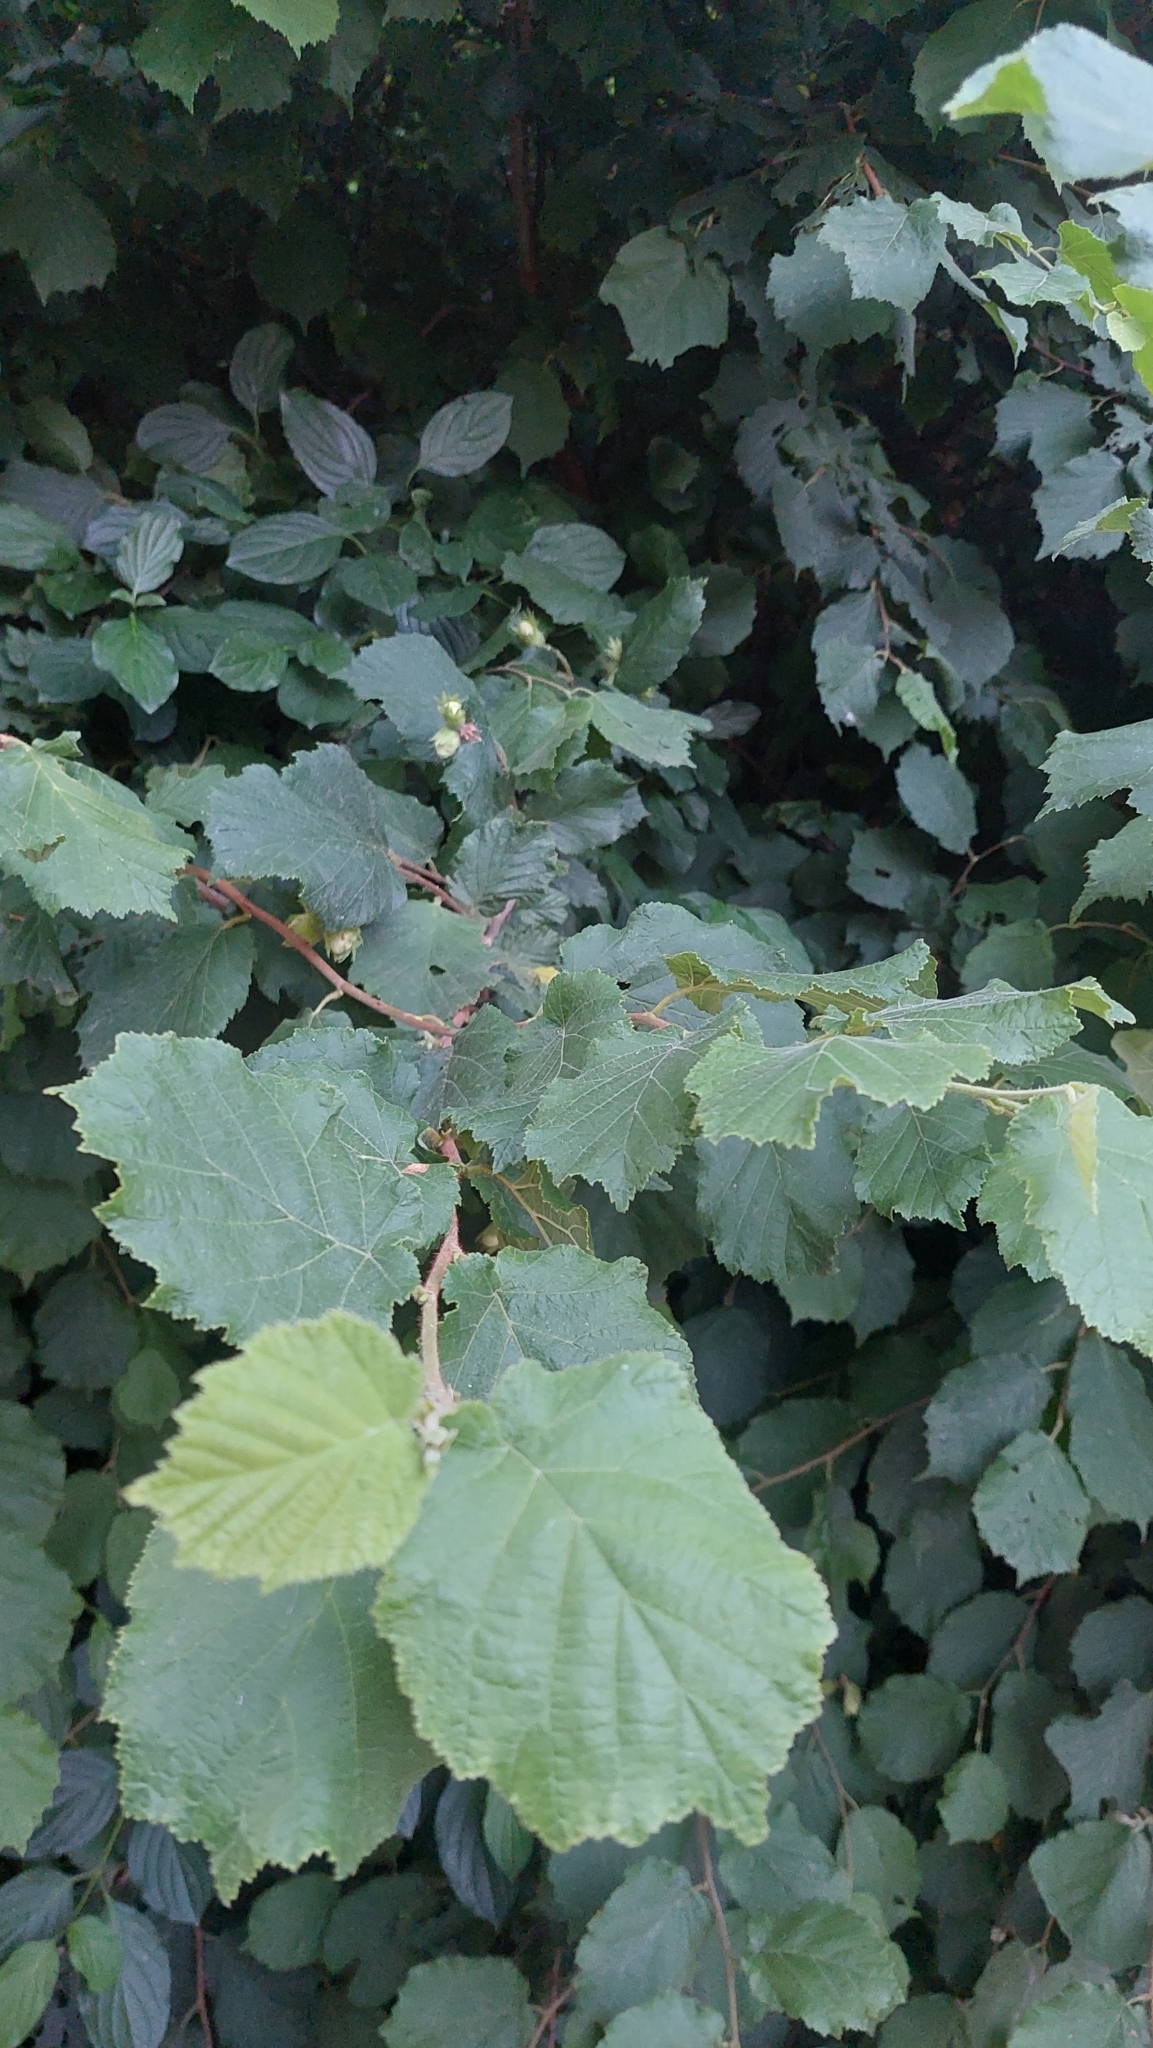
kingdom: Plantae
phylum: Tracheophyta
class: Magnoliopsida
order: Fagales
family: Betulaceae
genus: Corylus
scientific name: Corylus avellana
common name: European hazel
